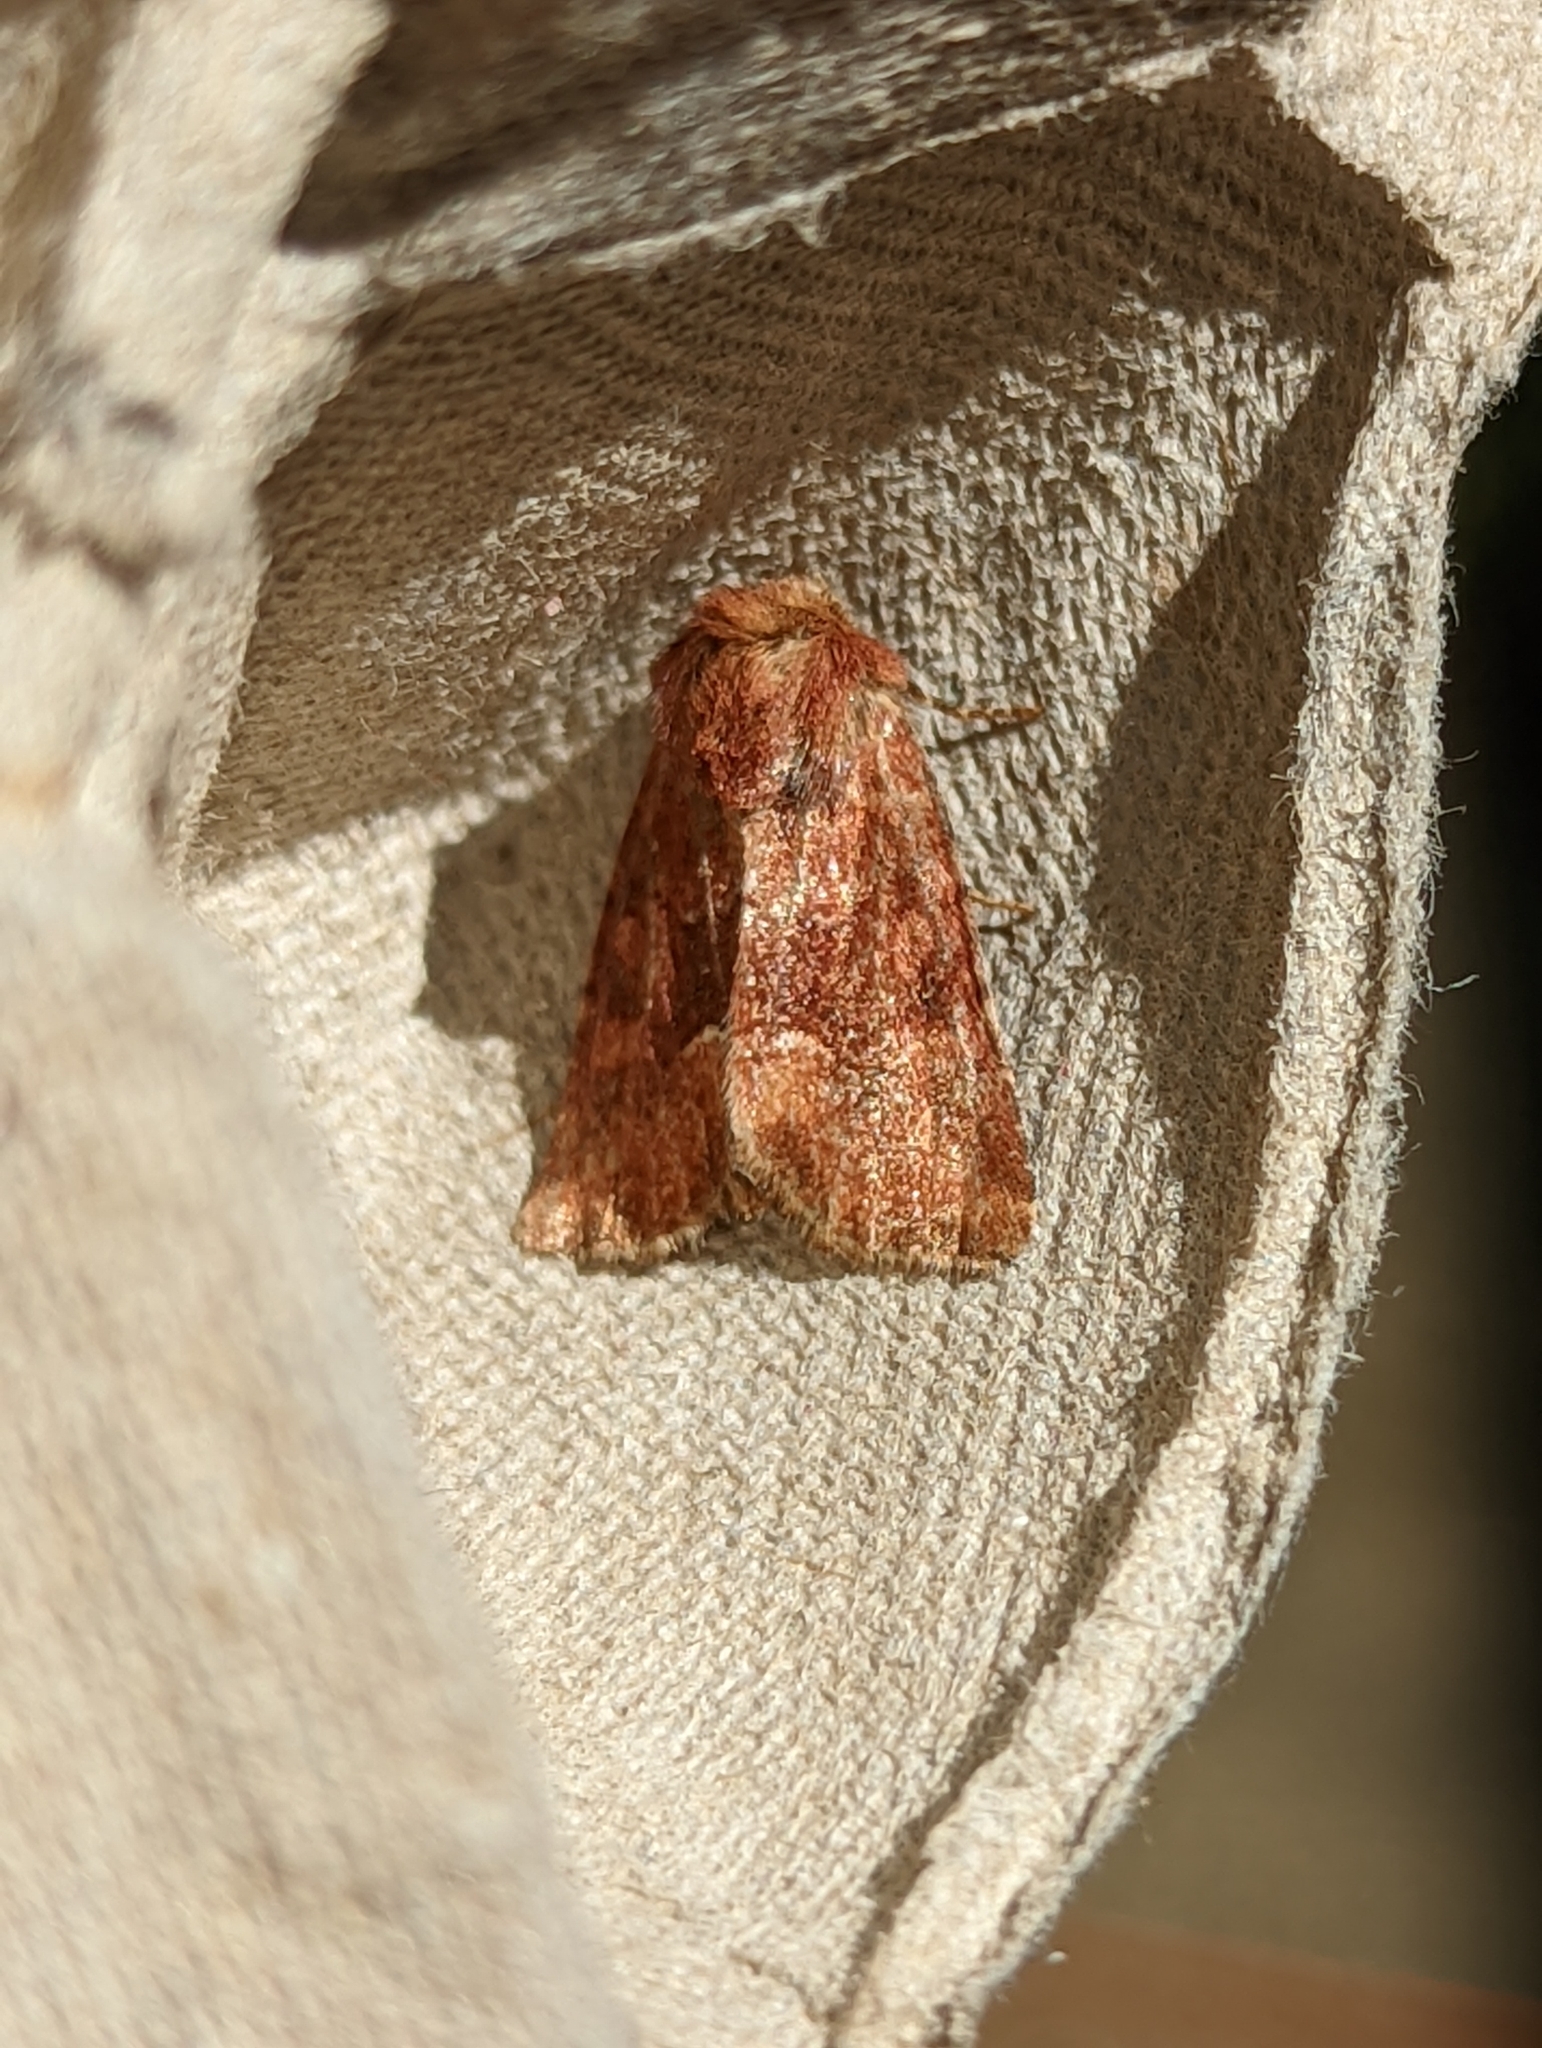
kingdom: Animalia
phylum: Arthropoda
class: Insecta
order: Lepidoptera
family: Noctuidae
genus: Oligia
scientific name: Oligia fasciuncula
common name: Middle-barred minor
